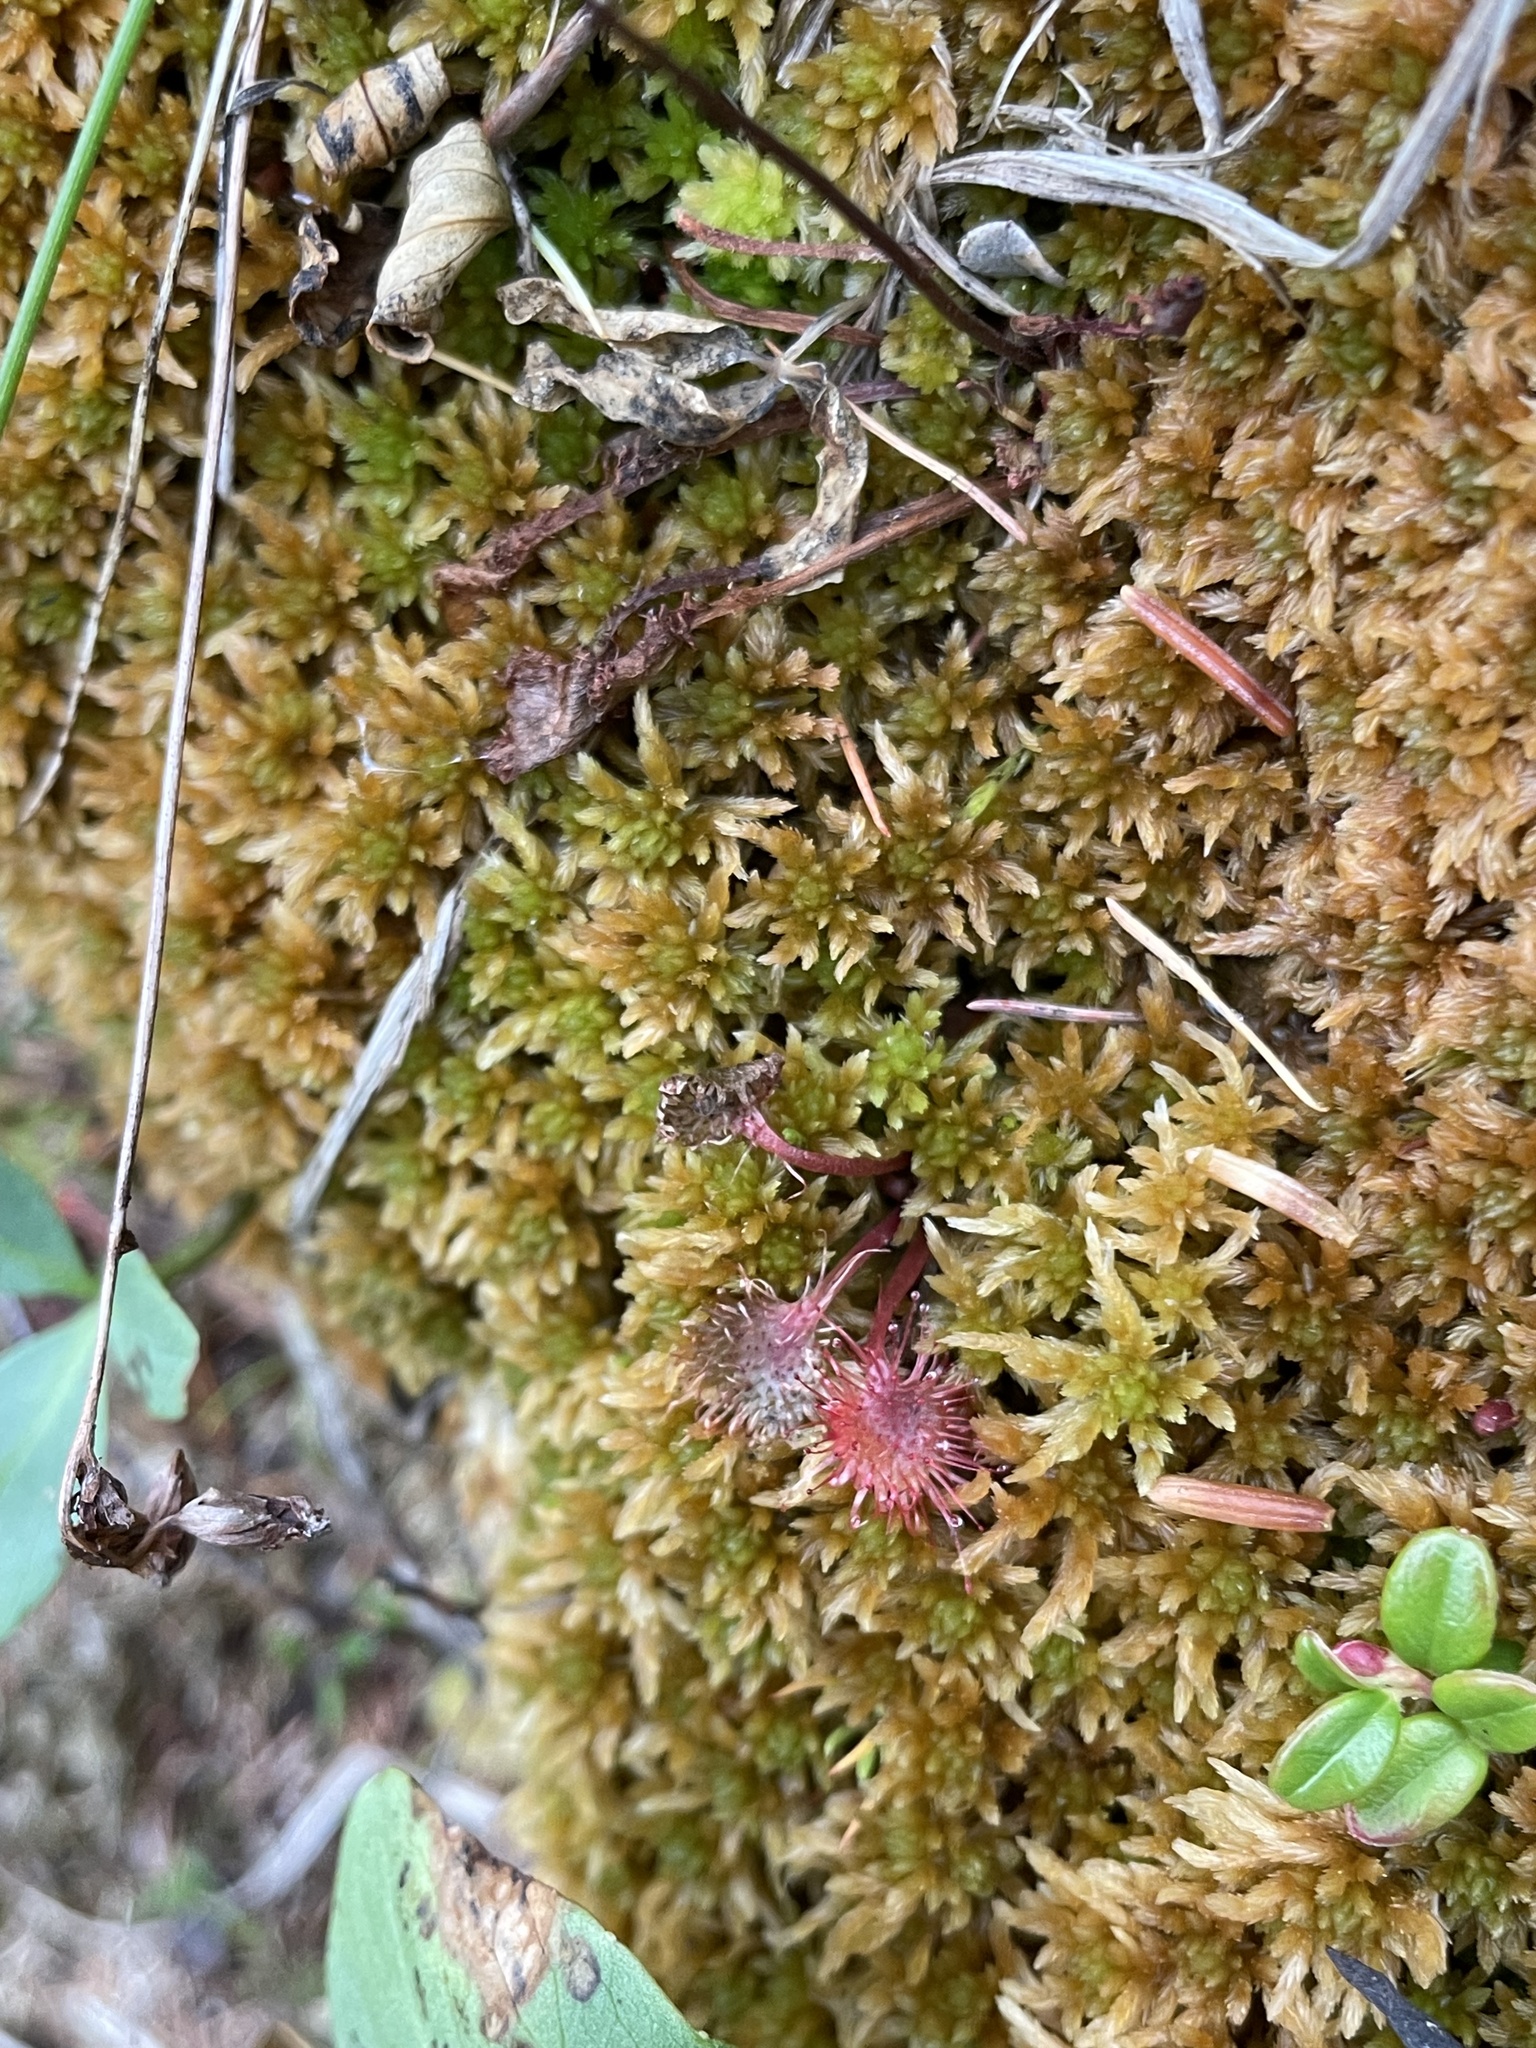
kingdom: Plantae
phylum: Tracheophyta
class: Magnoliopsida
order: Caryophyllales
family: Droseraceae
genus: Drosera
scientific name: Drosera rotundifolia
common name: Round-leaved sundew
